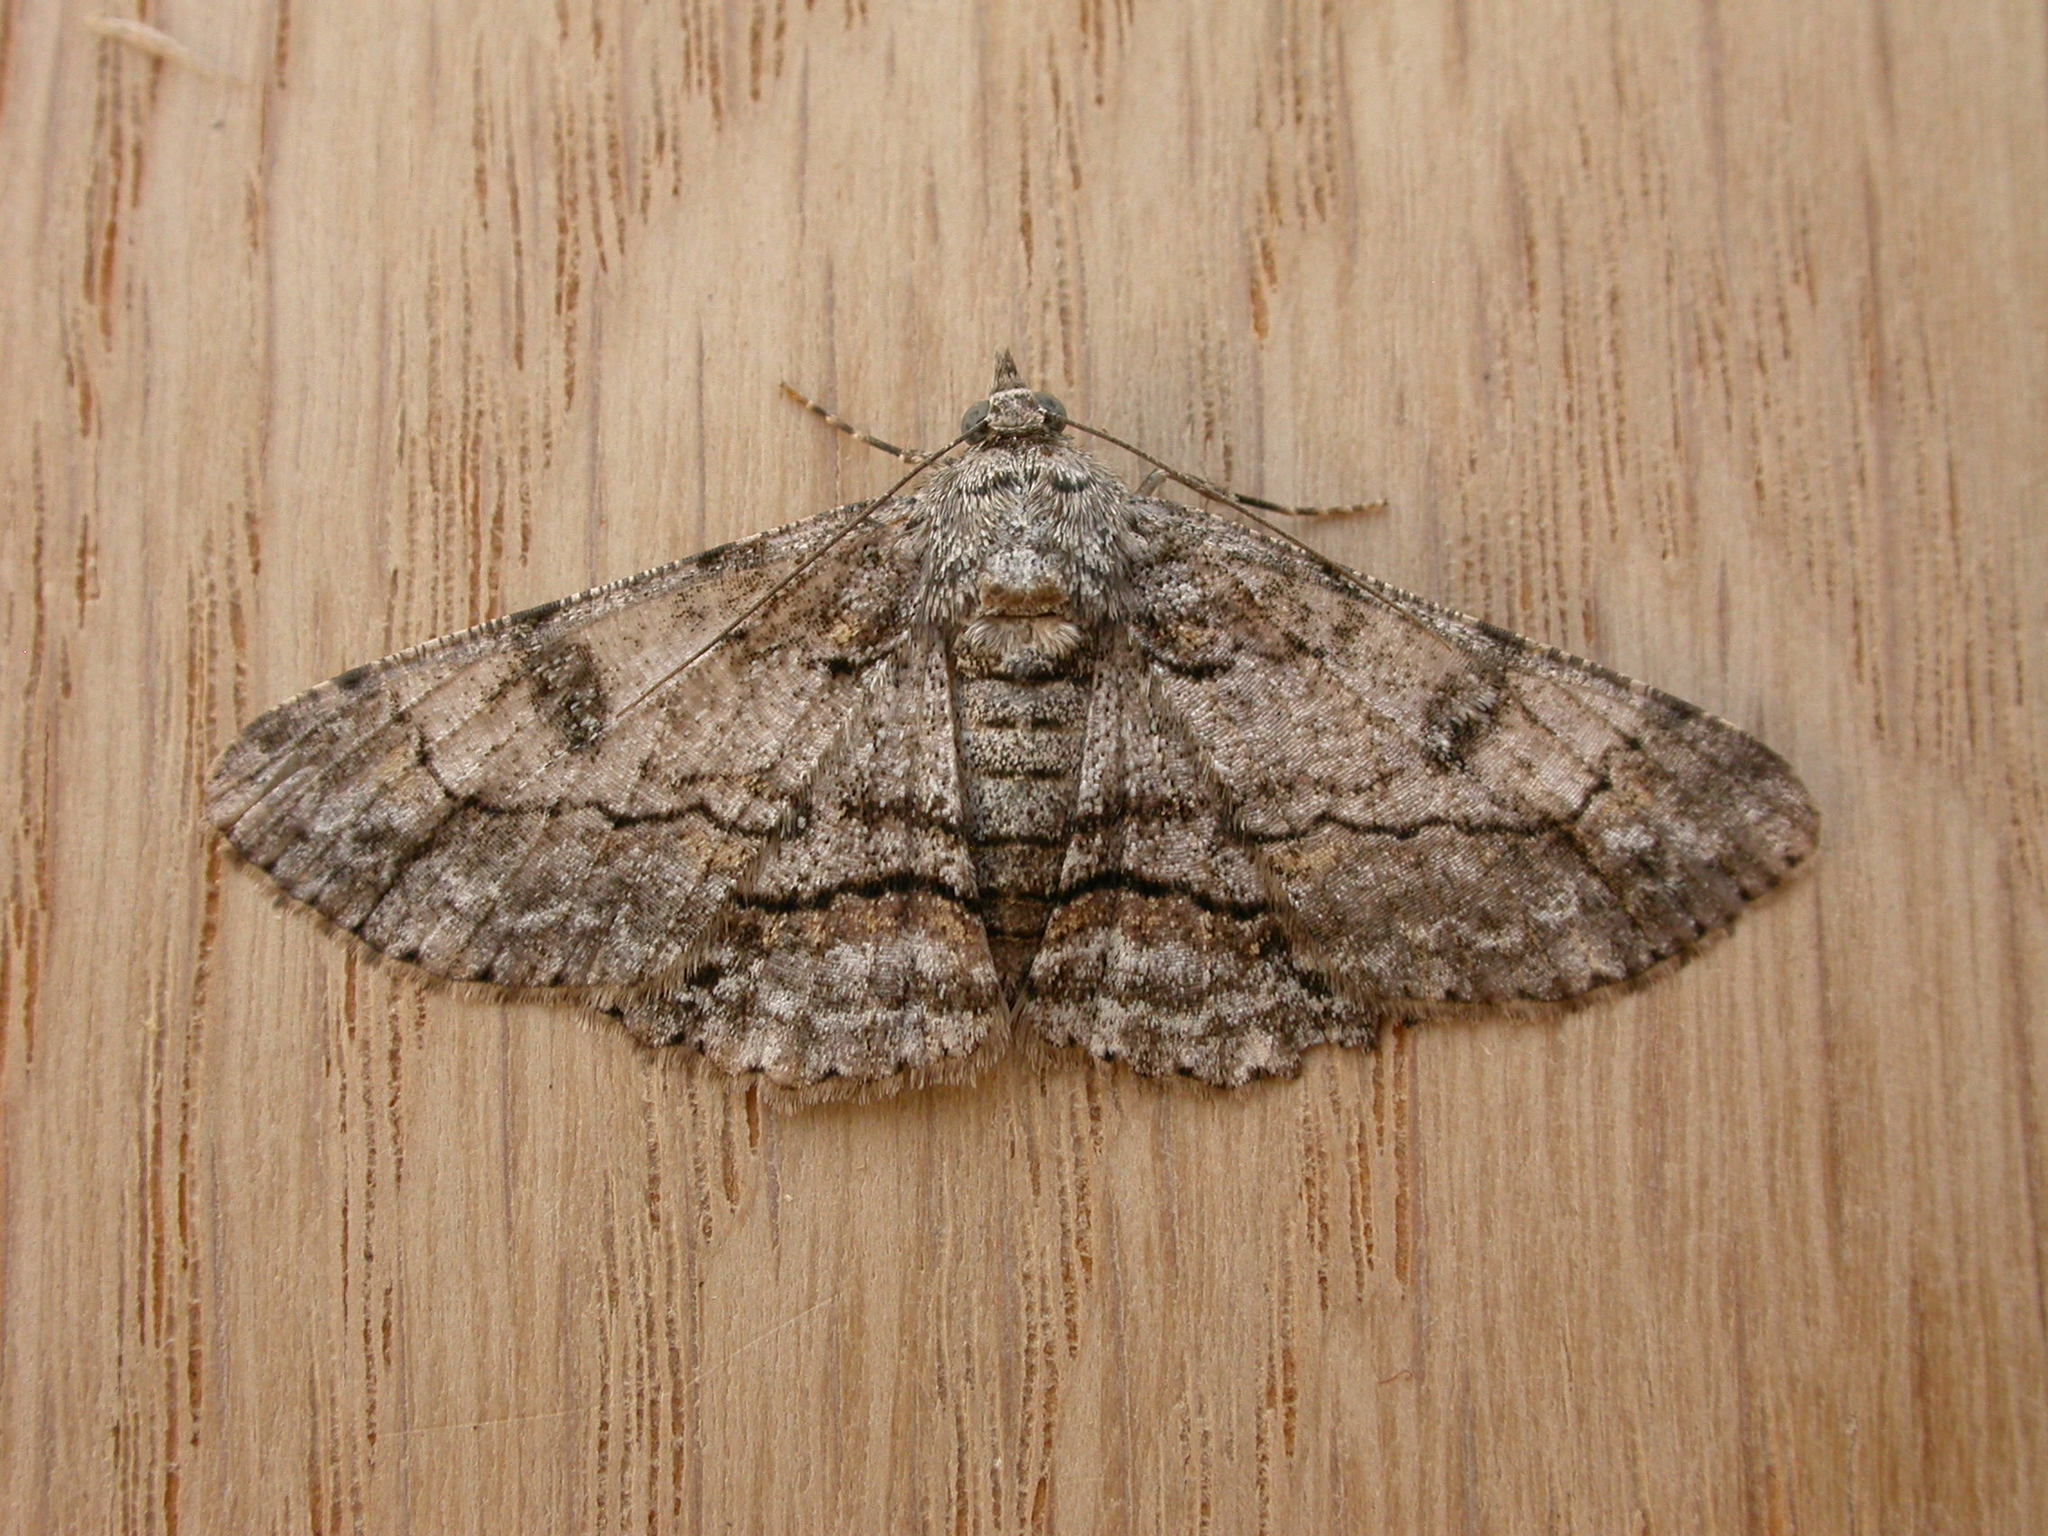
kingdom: Animalia
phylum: Arthropoda
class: Insecta
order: Lepidoptera
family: Geometridae
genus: Cleora
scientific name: Cleora injectaria
